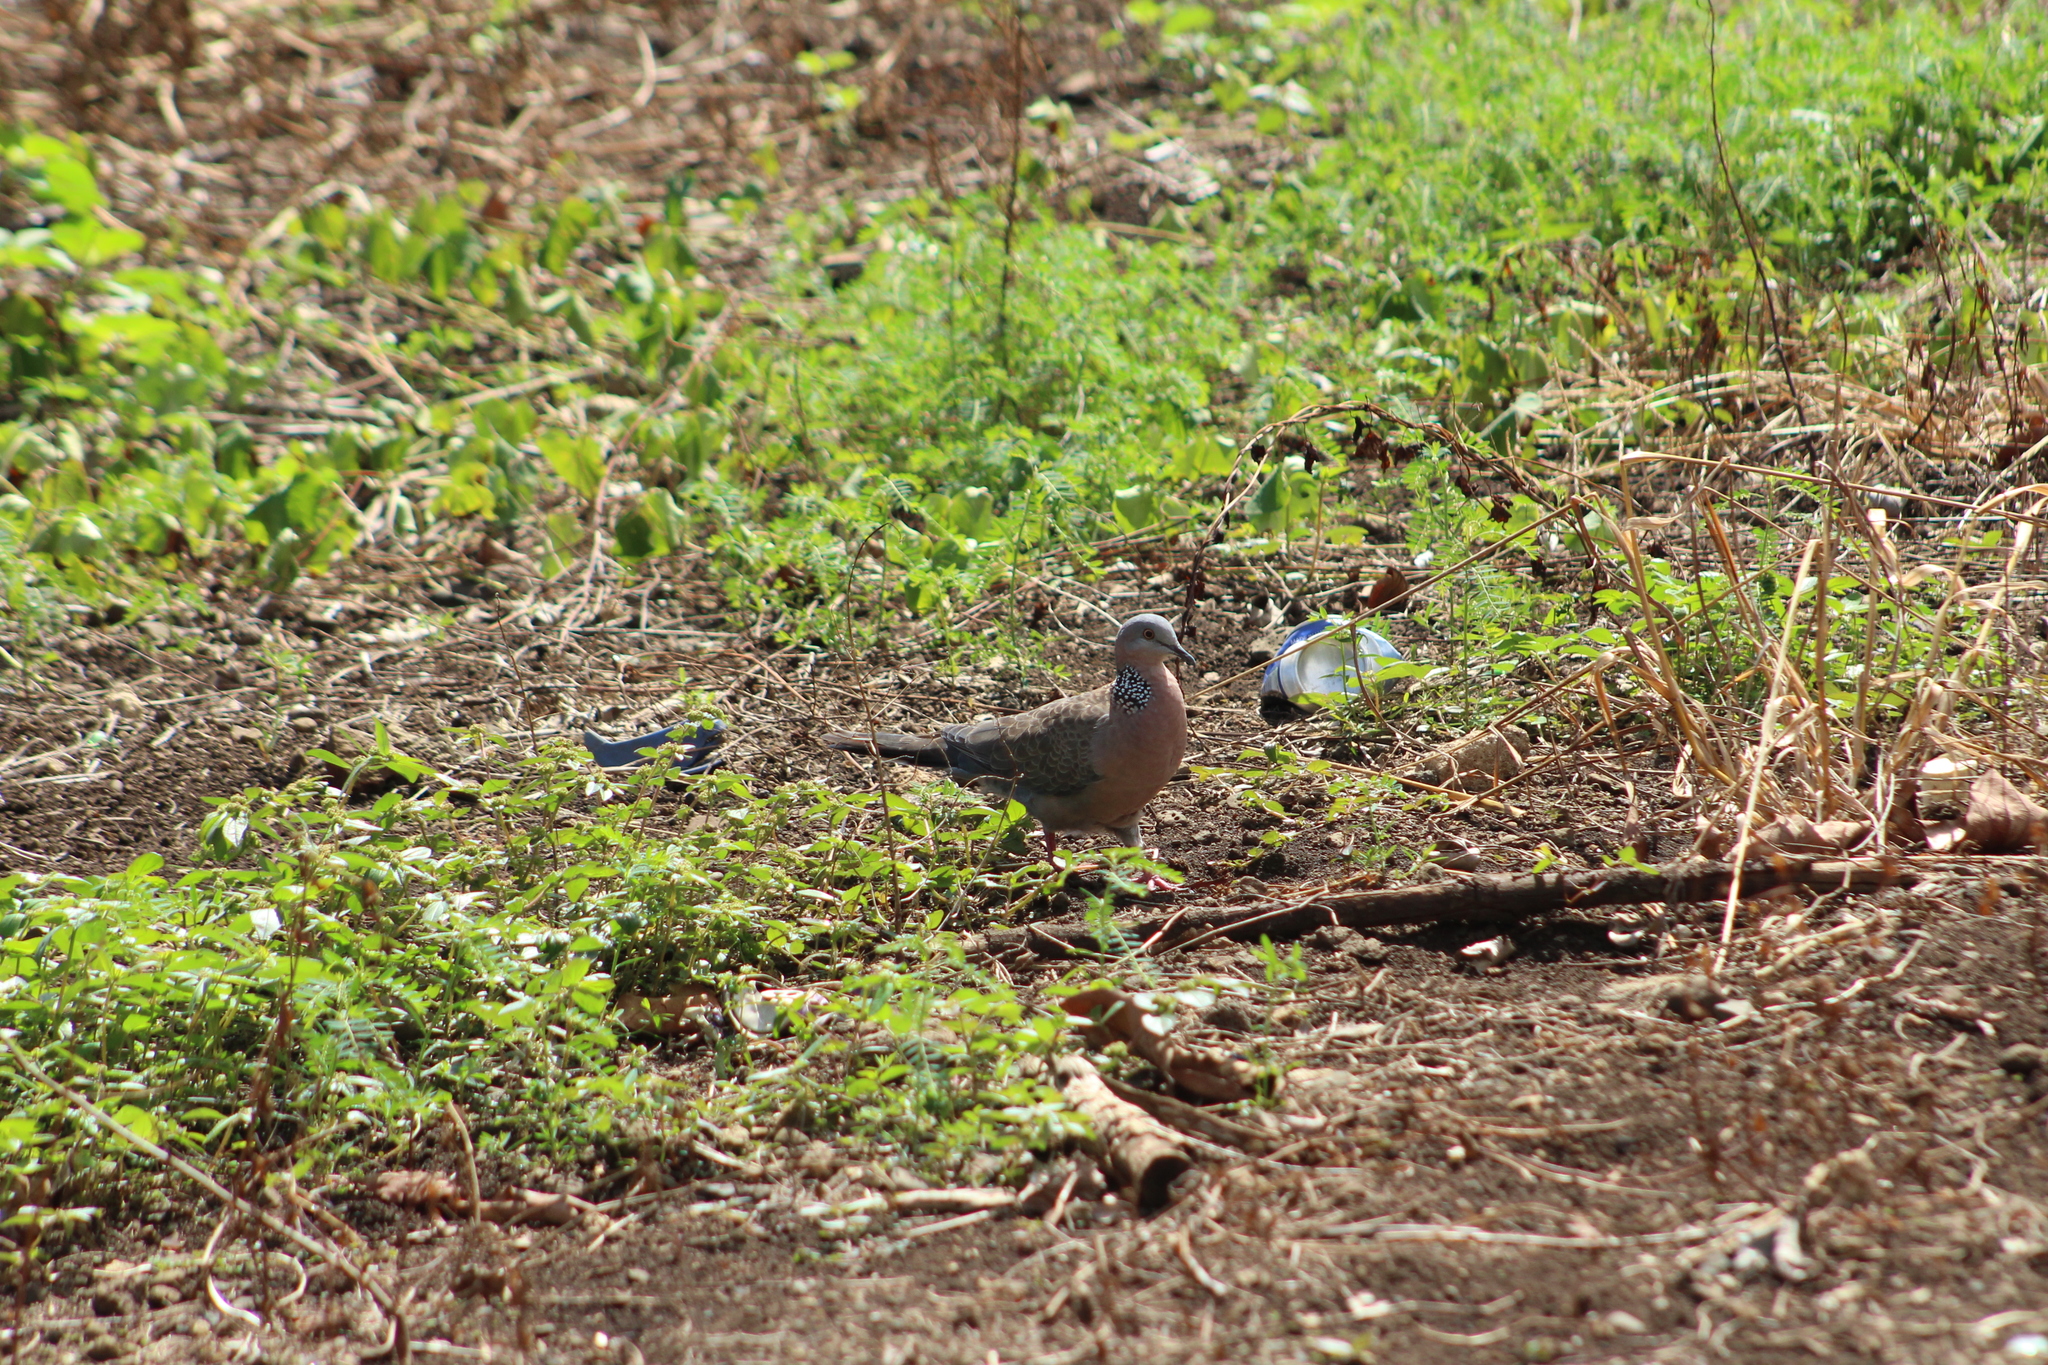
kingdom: Animalia
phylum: Chordata
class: Aves
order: Columbiformes
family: Columbidae
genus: Spilopelia
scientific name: Spilopelia chinensis
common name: Spotted dove
